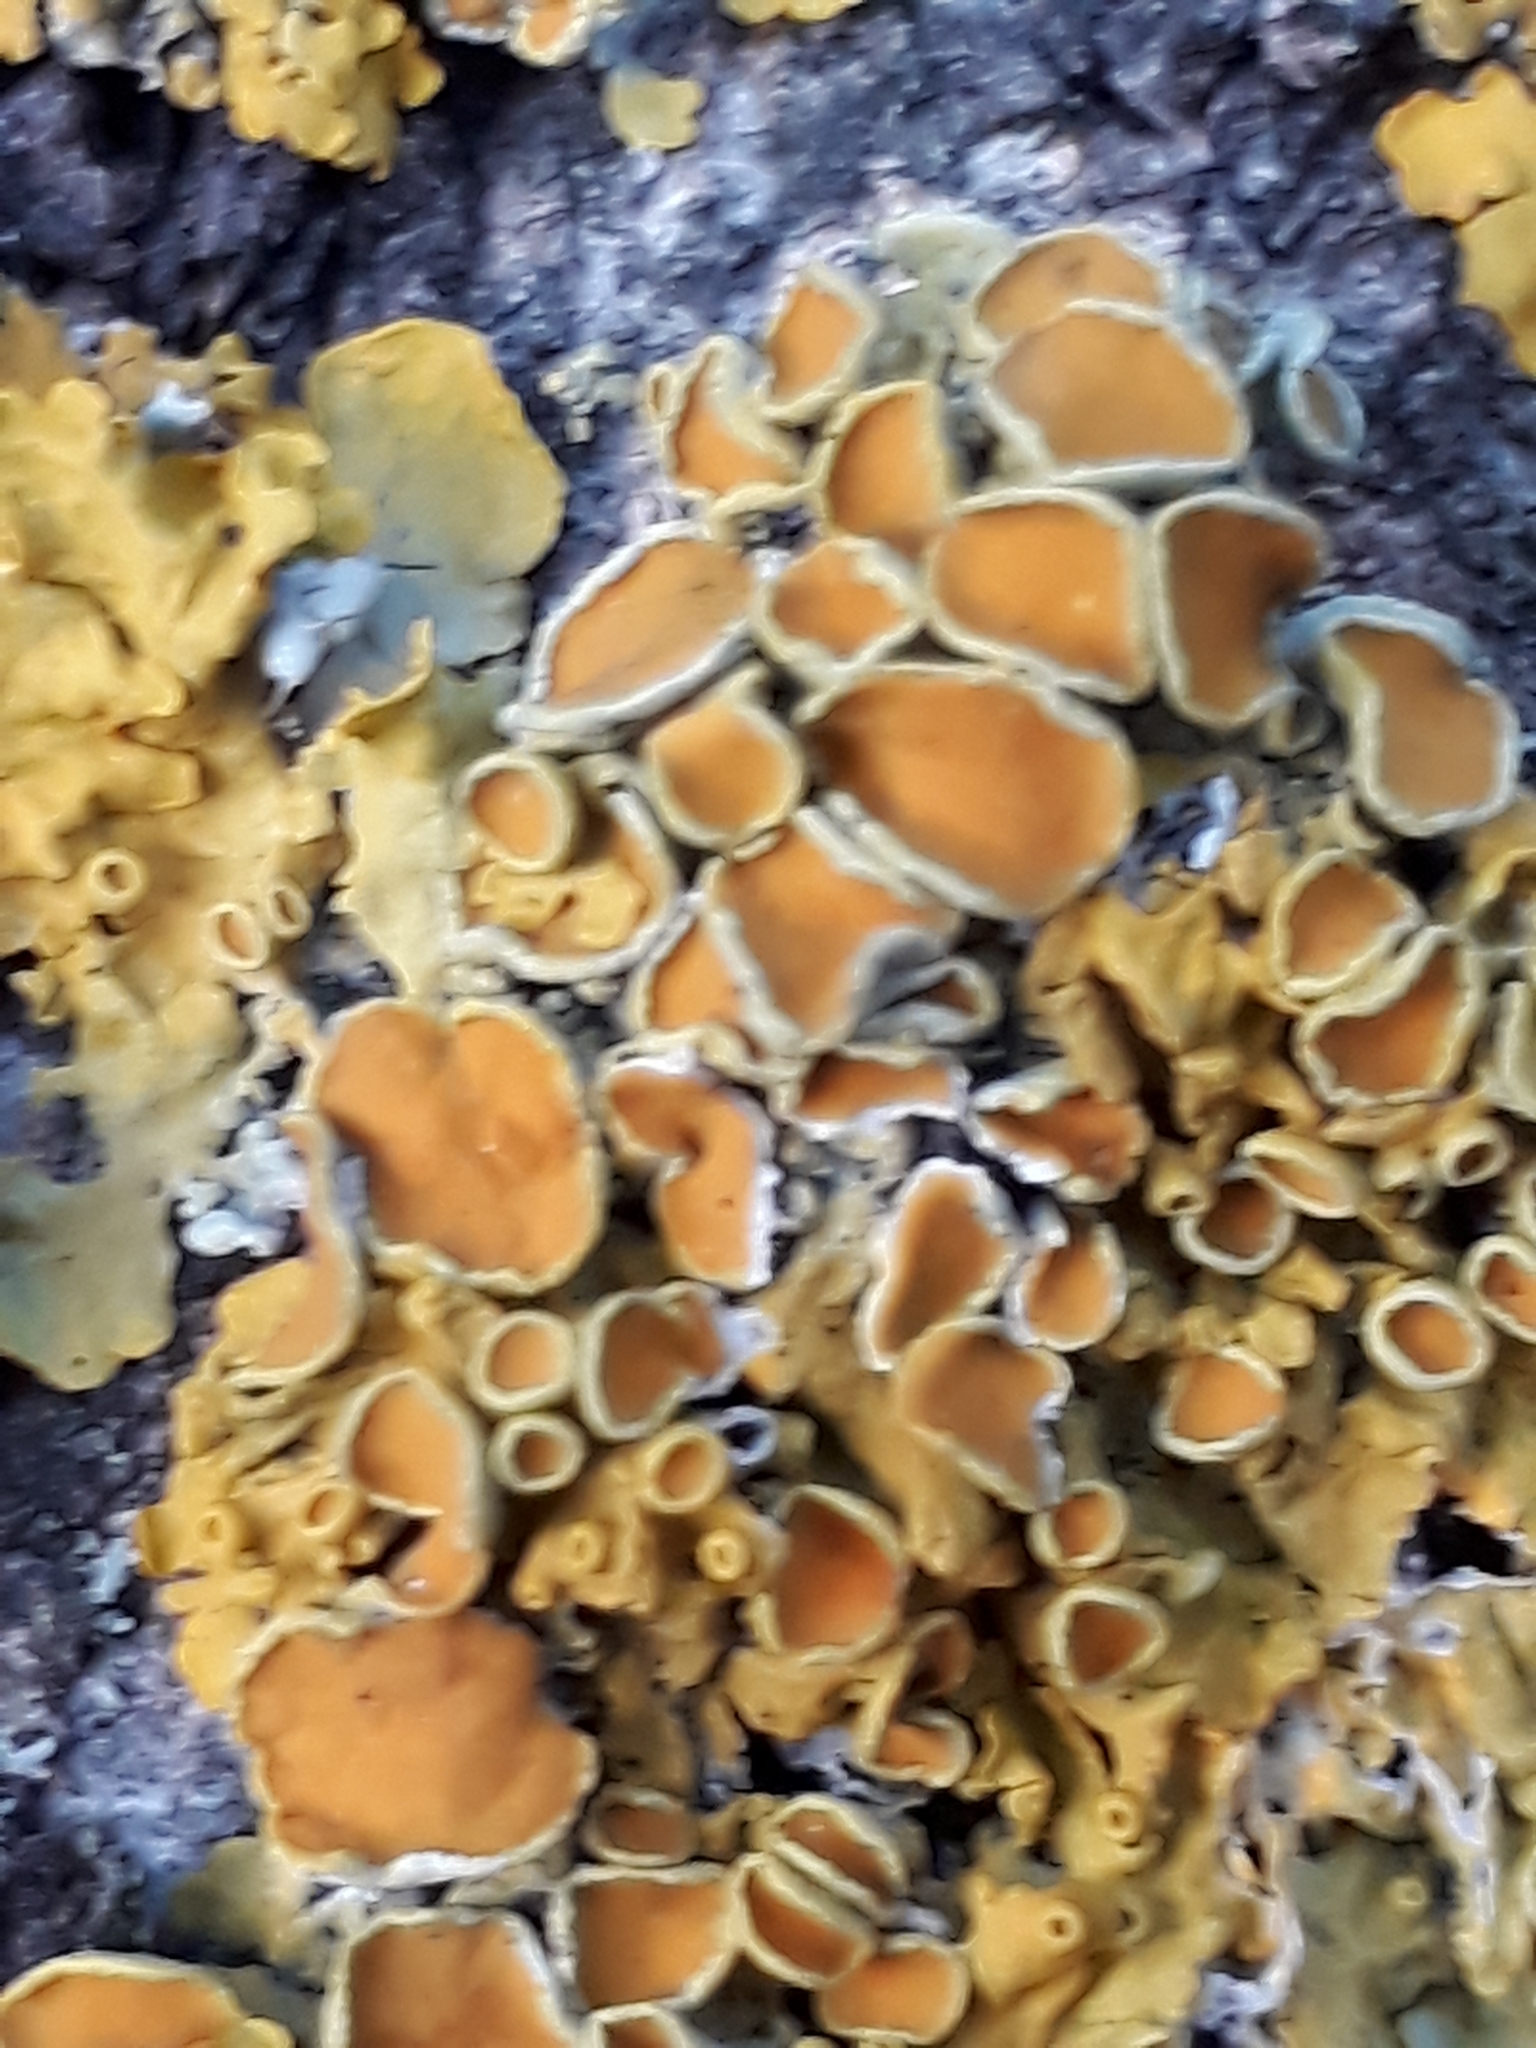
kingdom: Fungi
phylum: Ascomycota
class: Lecanoromycetes
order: Teloschistales
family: Teloschistaceae
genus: Xanthoria
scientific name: Xanthoria parietina
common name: Common orange lichen
